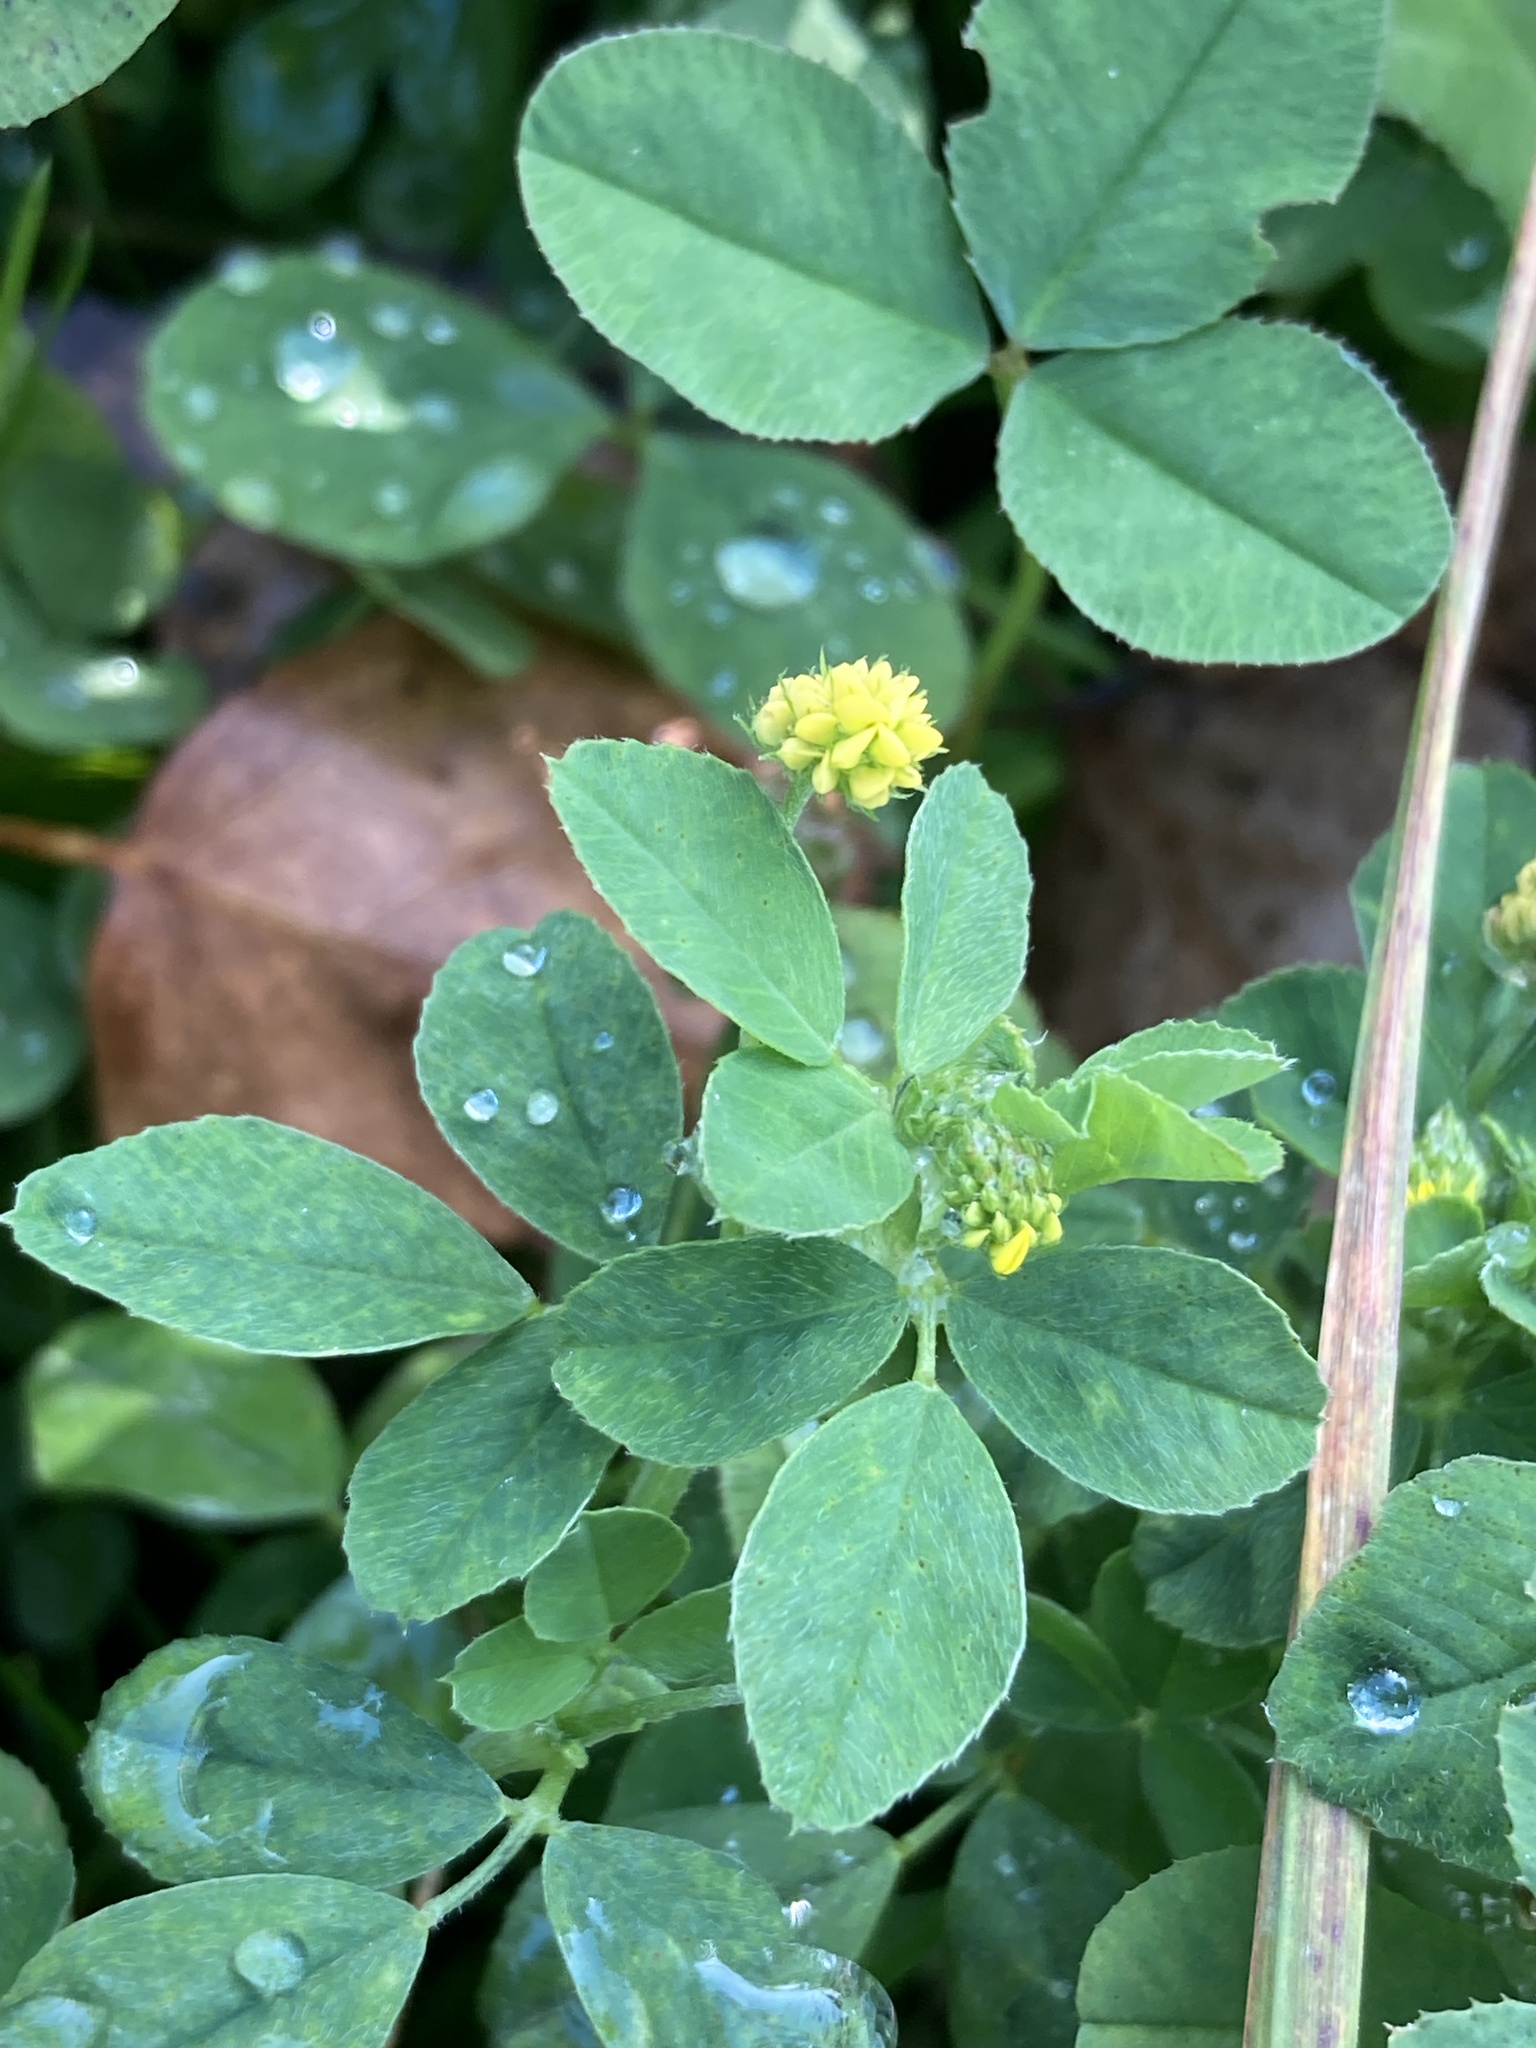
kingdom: Plantae
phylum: Tracheophyta
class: Magnoliopsida
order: Fabales
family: Fabaceae
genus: Medicago
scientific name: Medicago lupulina
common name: Black medick
